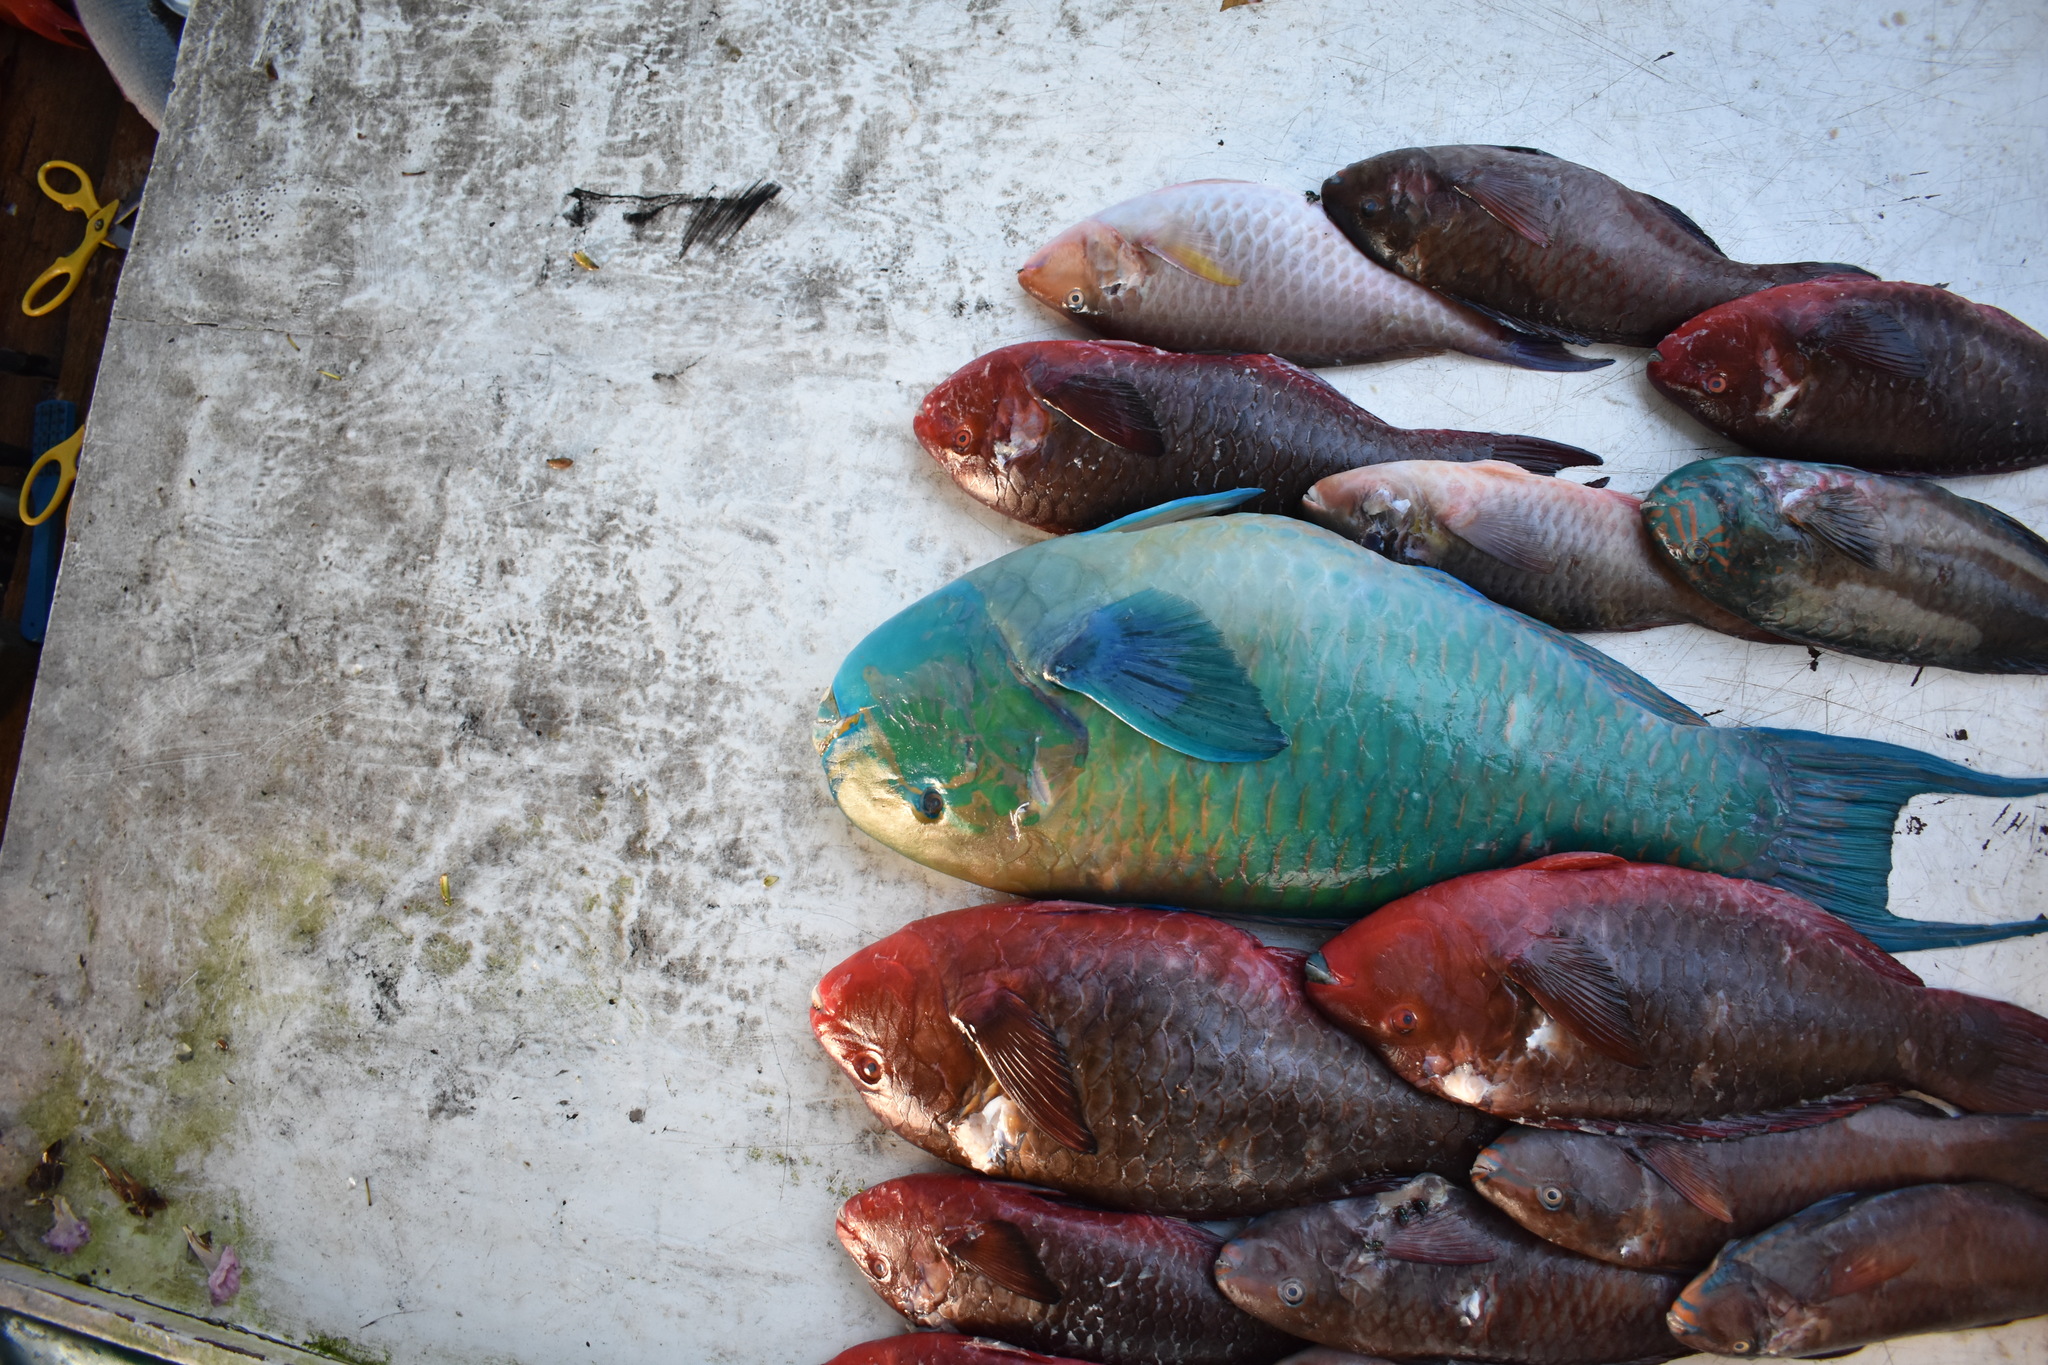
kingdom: Animalia
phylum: Chordata
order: Perciformes
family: Scaridae
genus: Scarus
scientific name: Scarus rubroviolaceus
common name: Ember parrotfish
